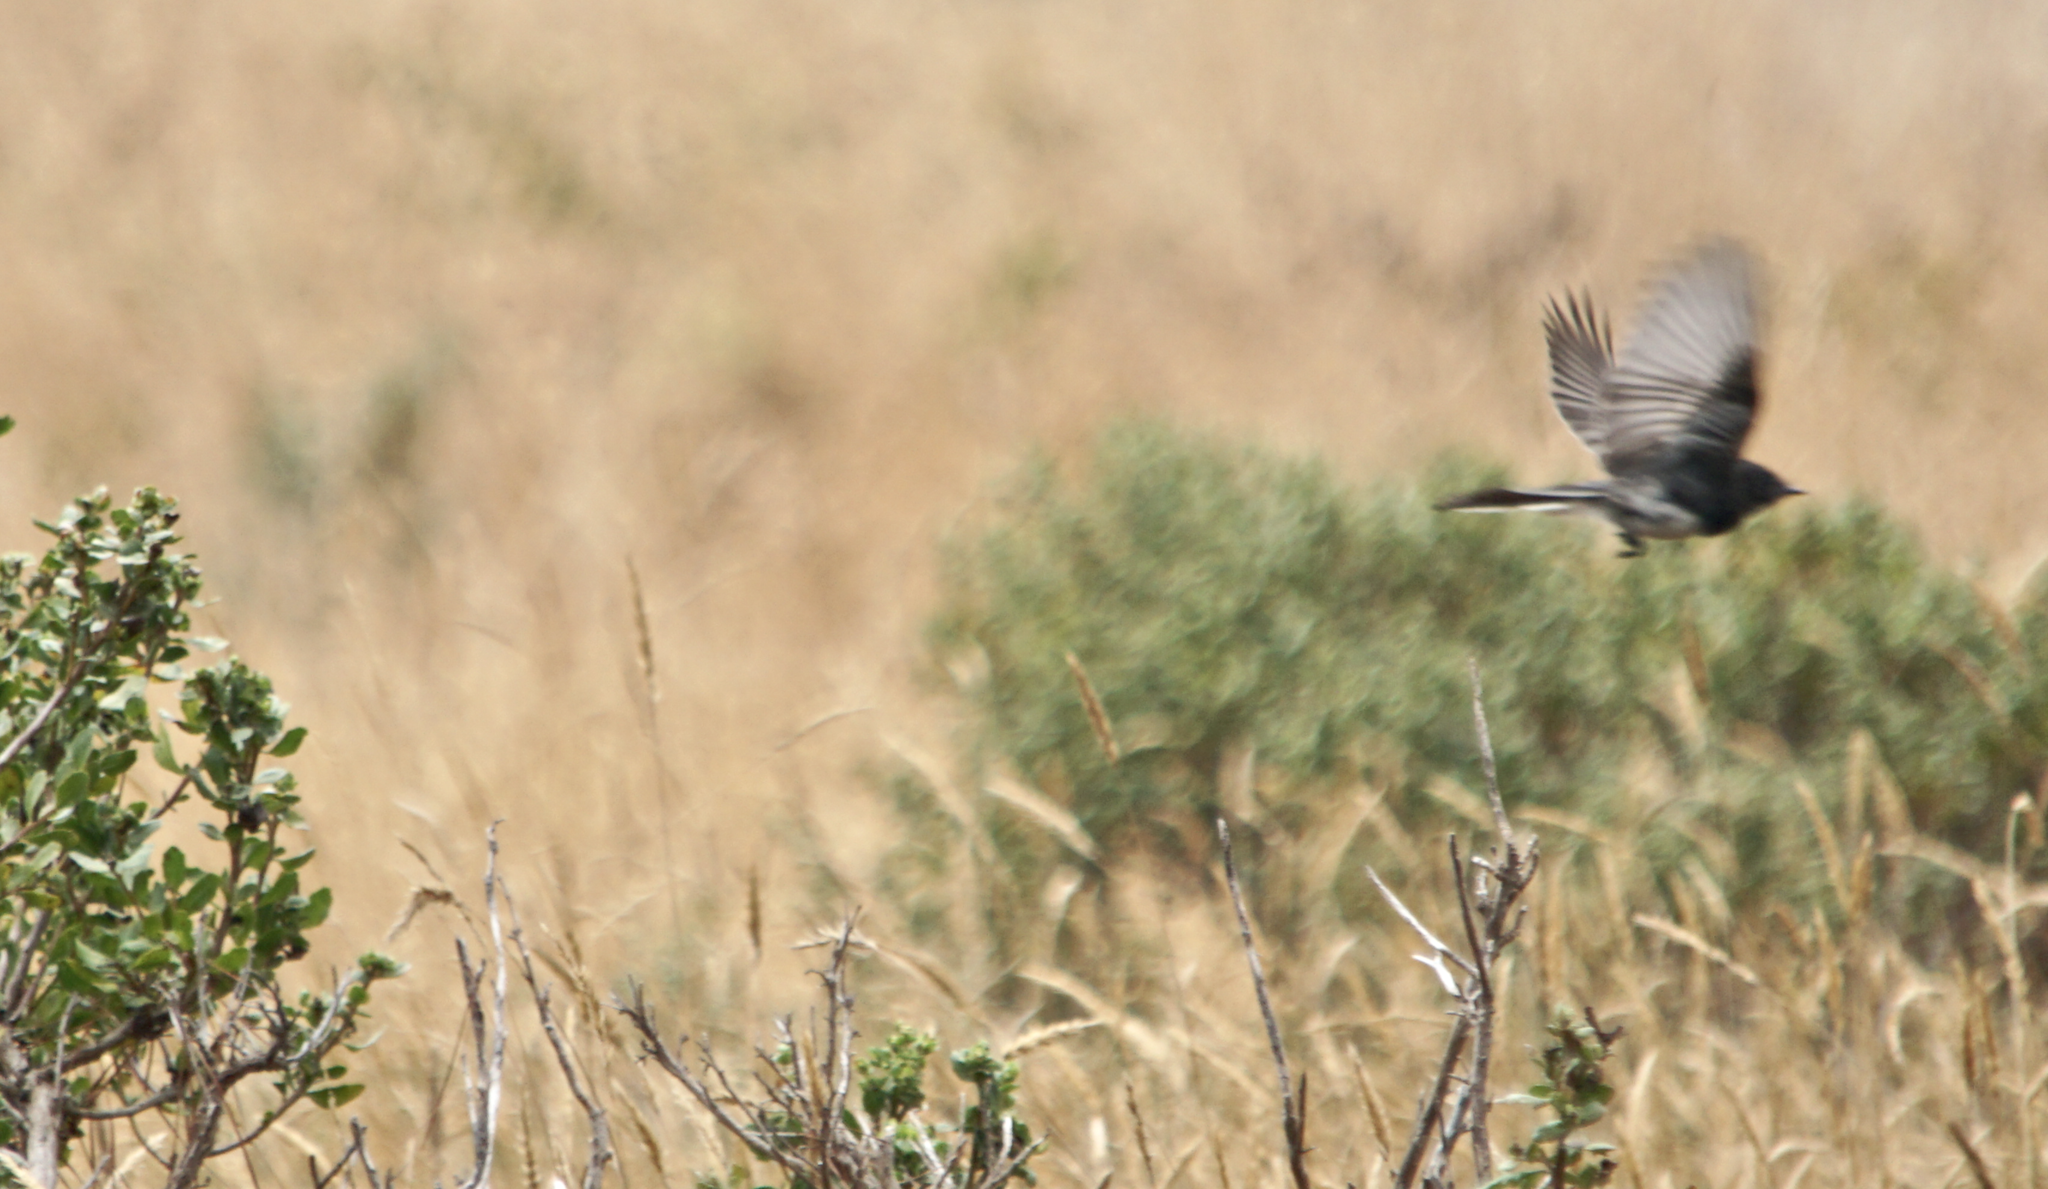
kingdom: Animalia
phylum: Chordata
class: Aves
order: Passeriformes
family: Tyrannidae
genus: Sayornis
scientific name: Sayornis nigricans
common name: Black phoebe
